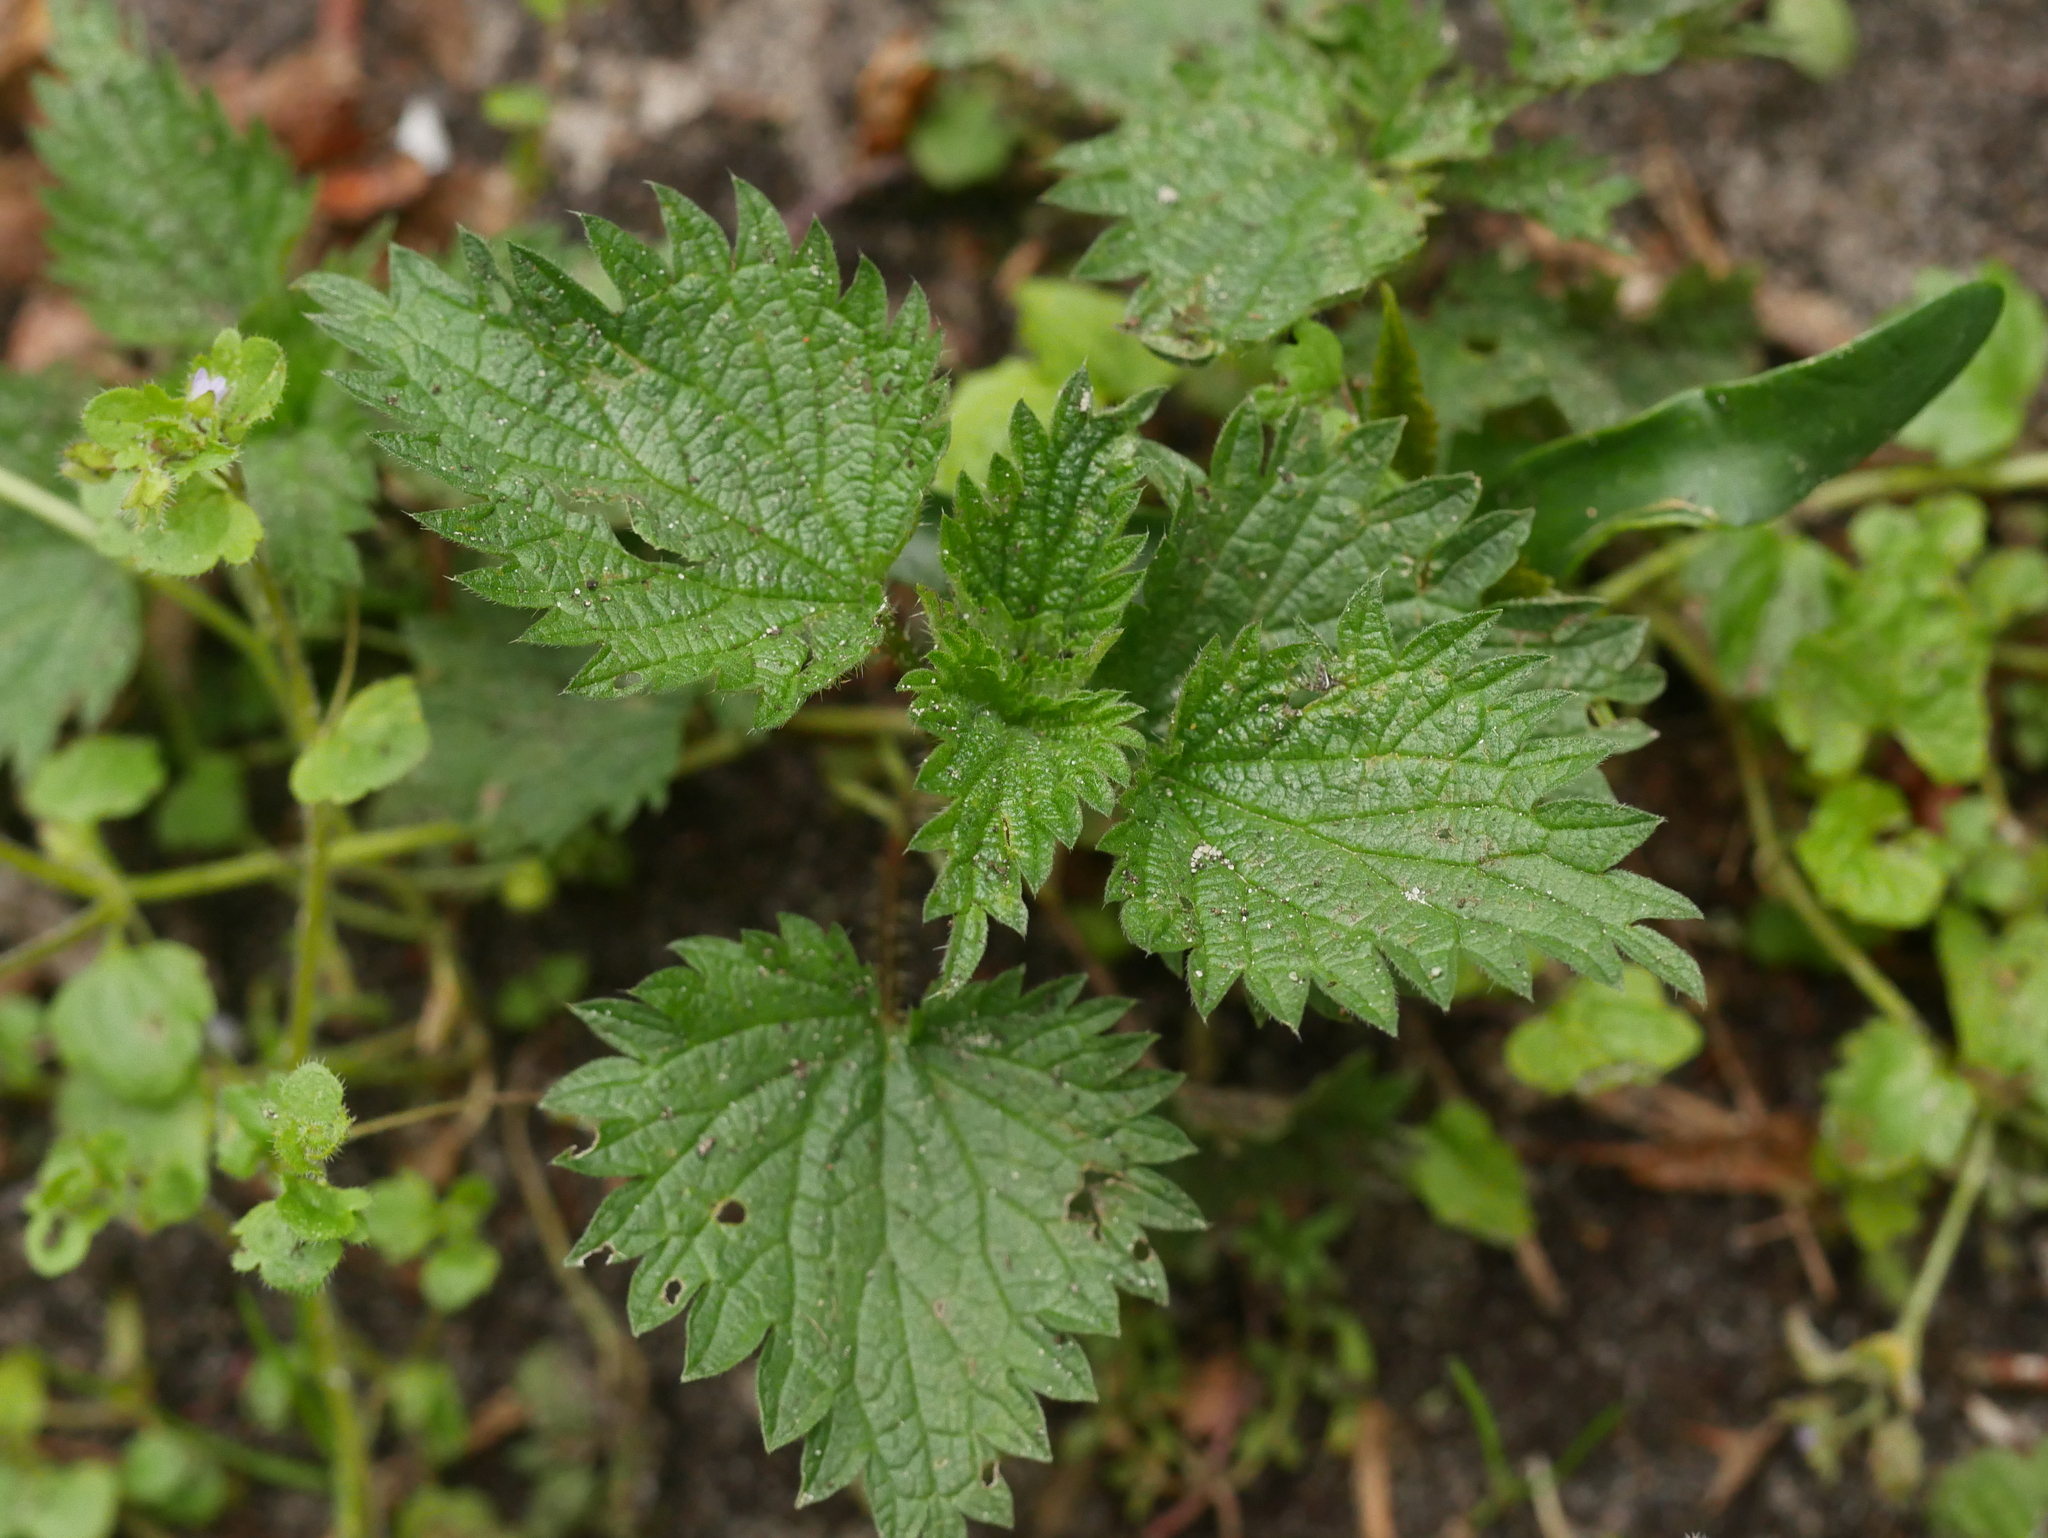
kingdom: Plantae
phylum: Tracheophyta
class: Magnoliopsida
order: Rosales
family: Urticaceae
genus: Urtica
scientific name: Urtica dioica
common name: Common nettle
